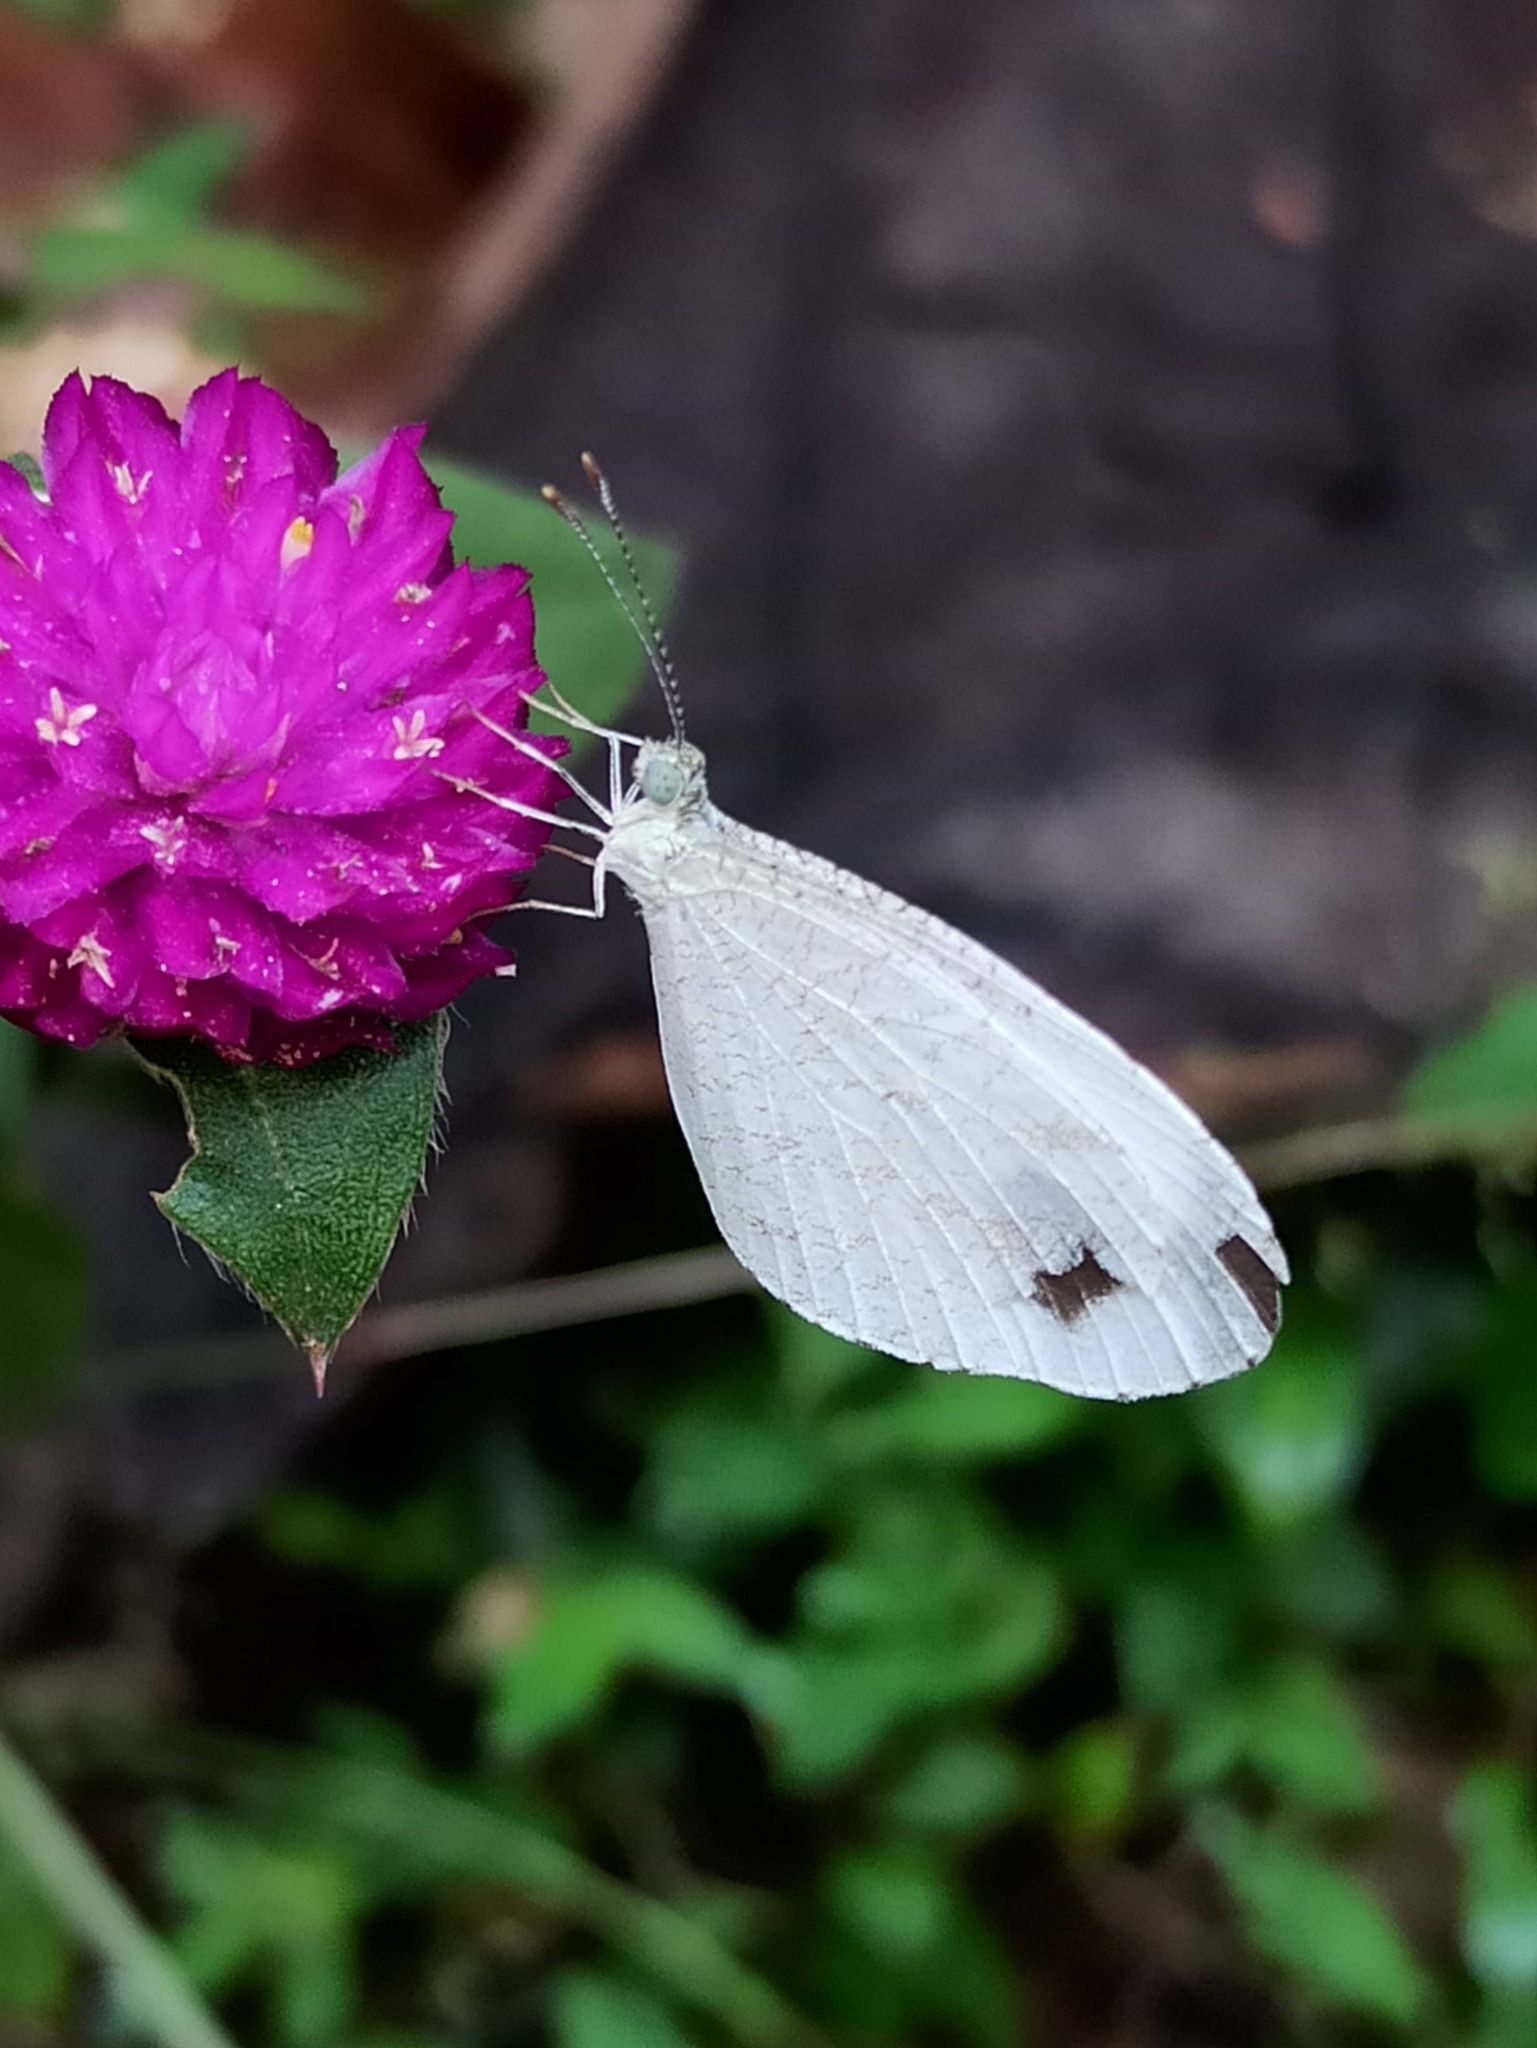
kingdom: Animalia
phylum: Arthropoda
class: Insecta
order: Lepidoptera
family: Pieridae
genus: Leptosia
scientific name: Leptosia nina
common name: Psyche
